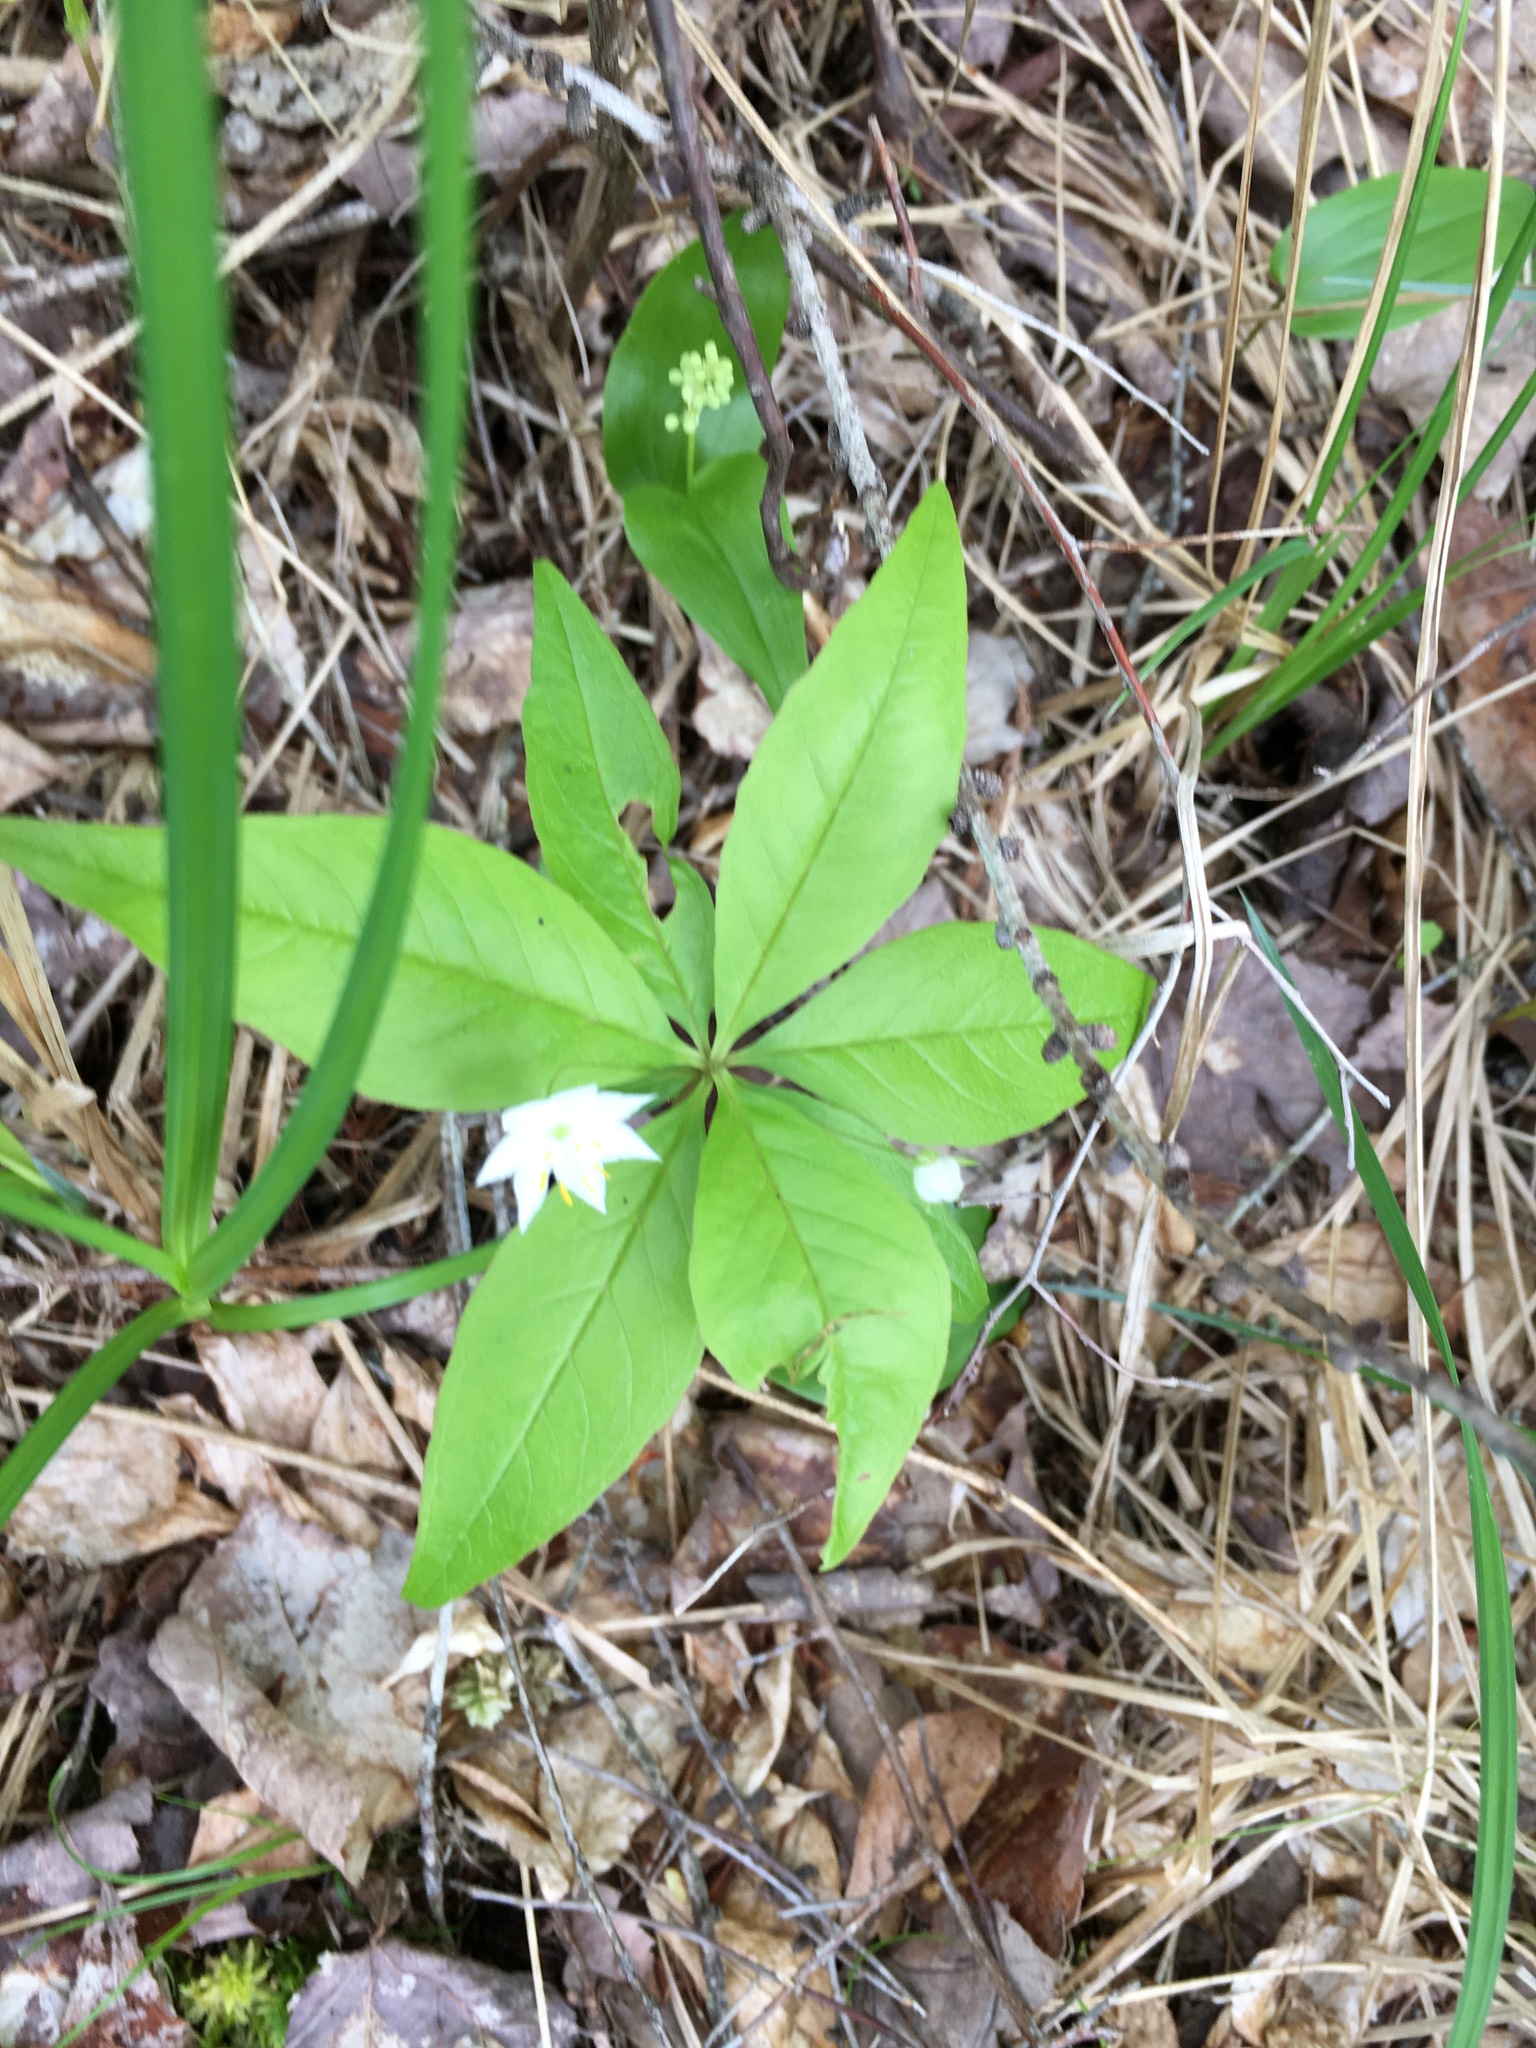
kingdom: Plantae
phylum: Tracheophyta
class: Magnoliopsida
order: Ericales
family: Primulaceae
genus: Lysimachia
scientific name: Lysimachia borealis
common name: American starflower
